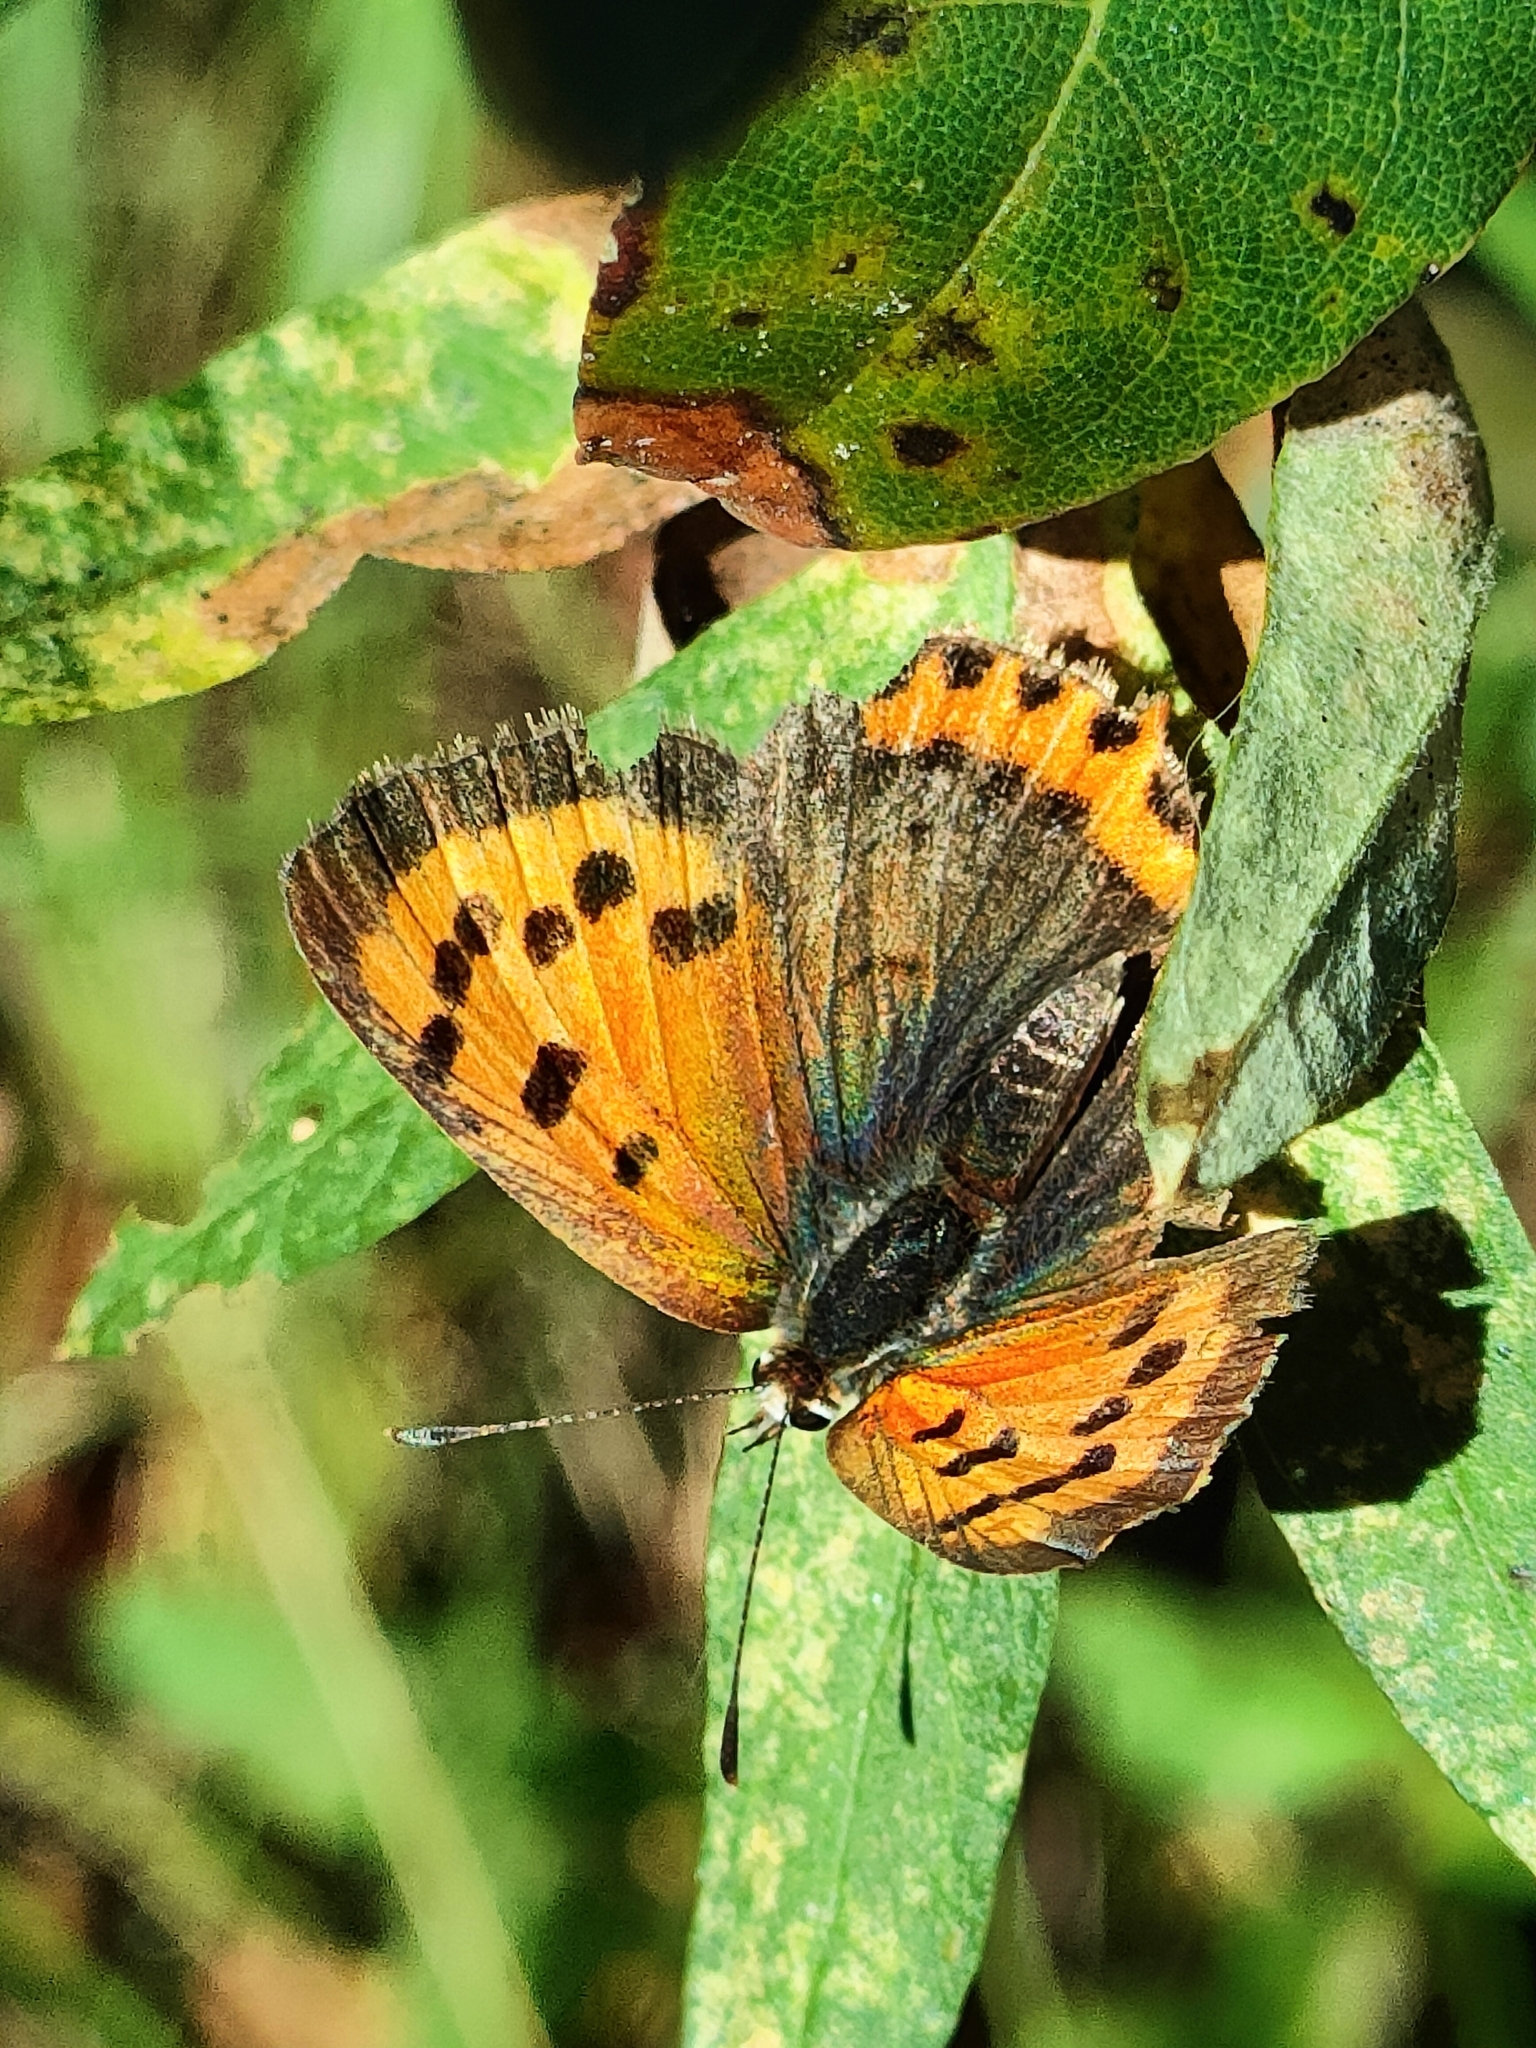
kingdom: Animalia
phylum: Arthropoda
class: Insecta
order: Lepidoptera
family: Lycaenidae
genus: Lycaena
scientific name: Lycaena phlaeas
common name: Small copper
